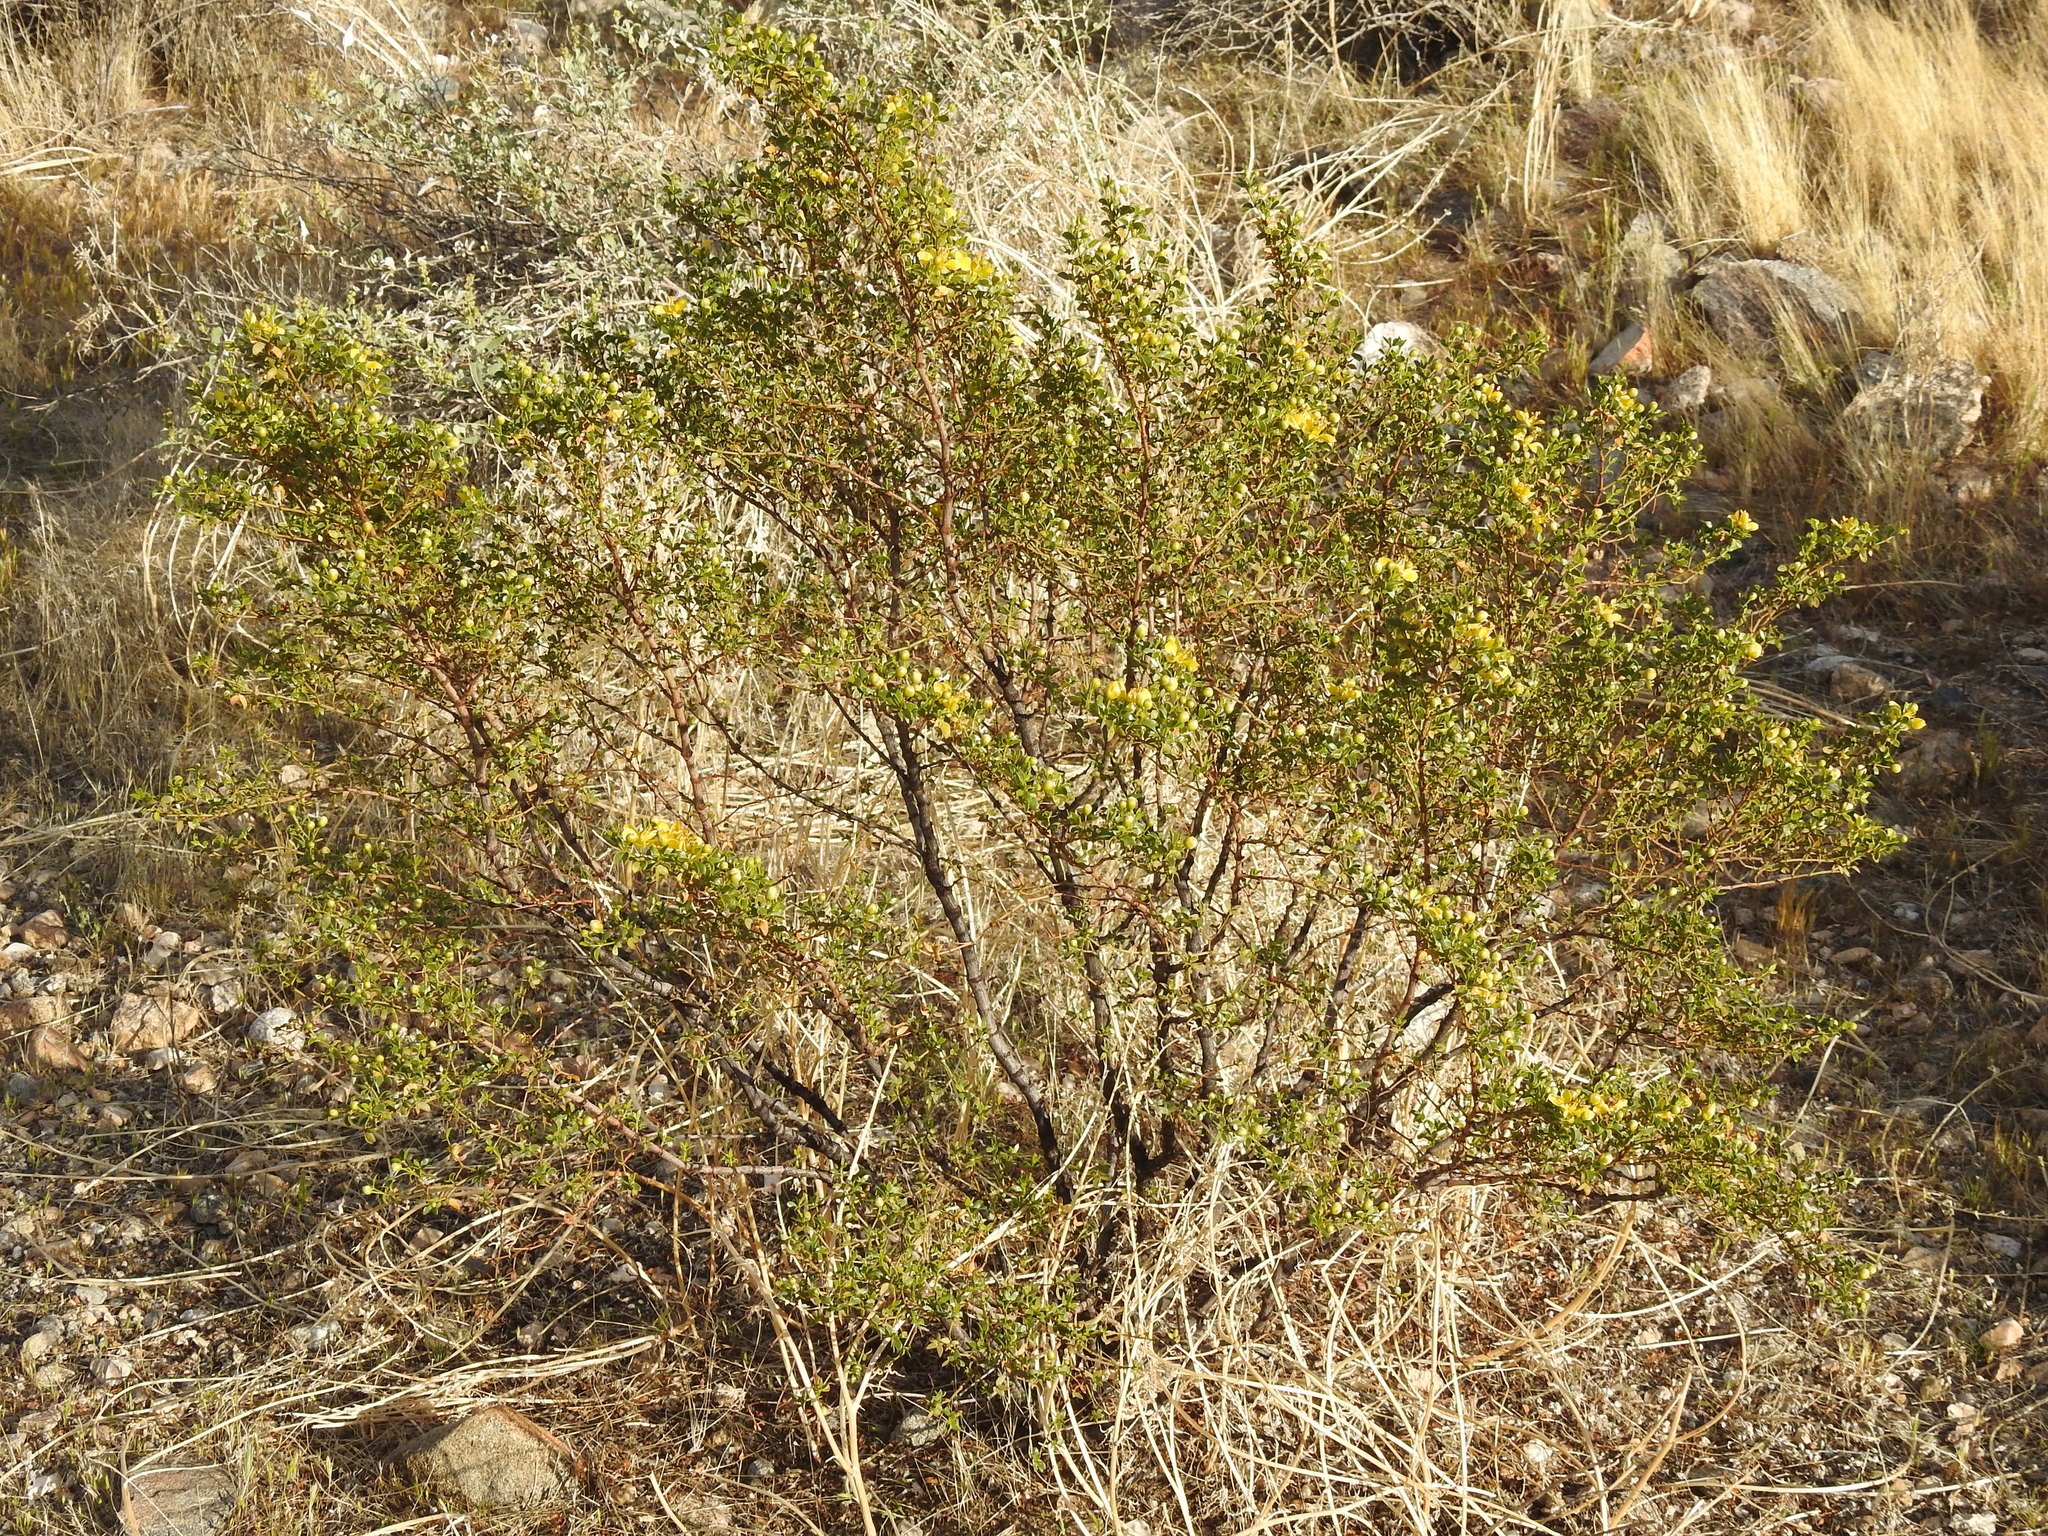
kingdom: Plantae
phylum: Tracheophyta
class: Magnoliopsida
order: Zygophyllales
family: Zygophyllaceae
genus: Larrea
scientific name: Larrea tridentata
